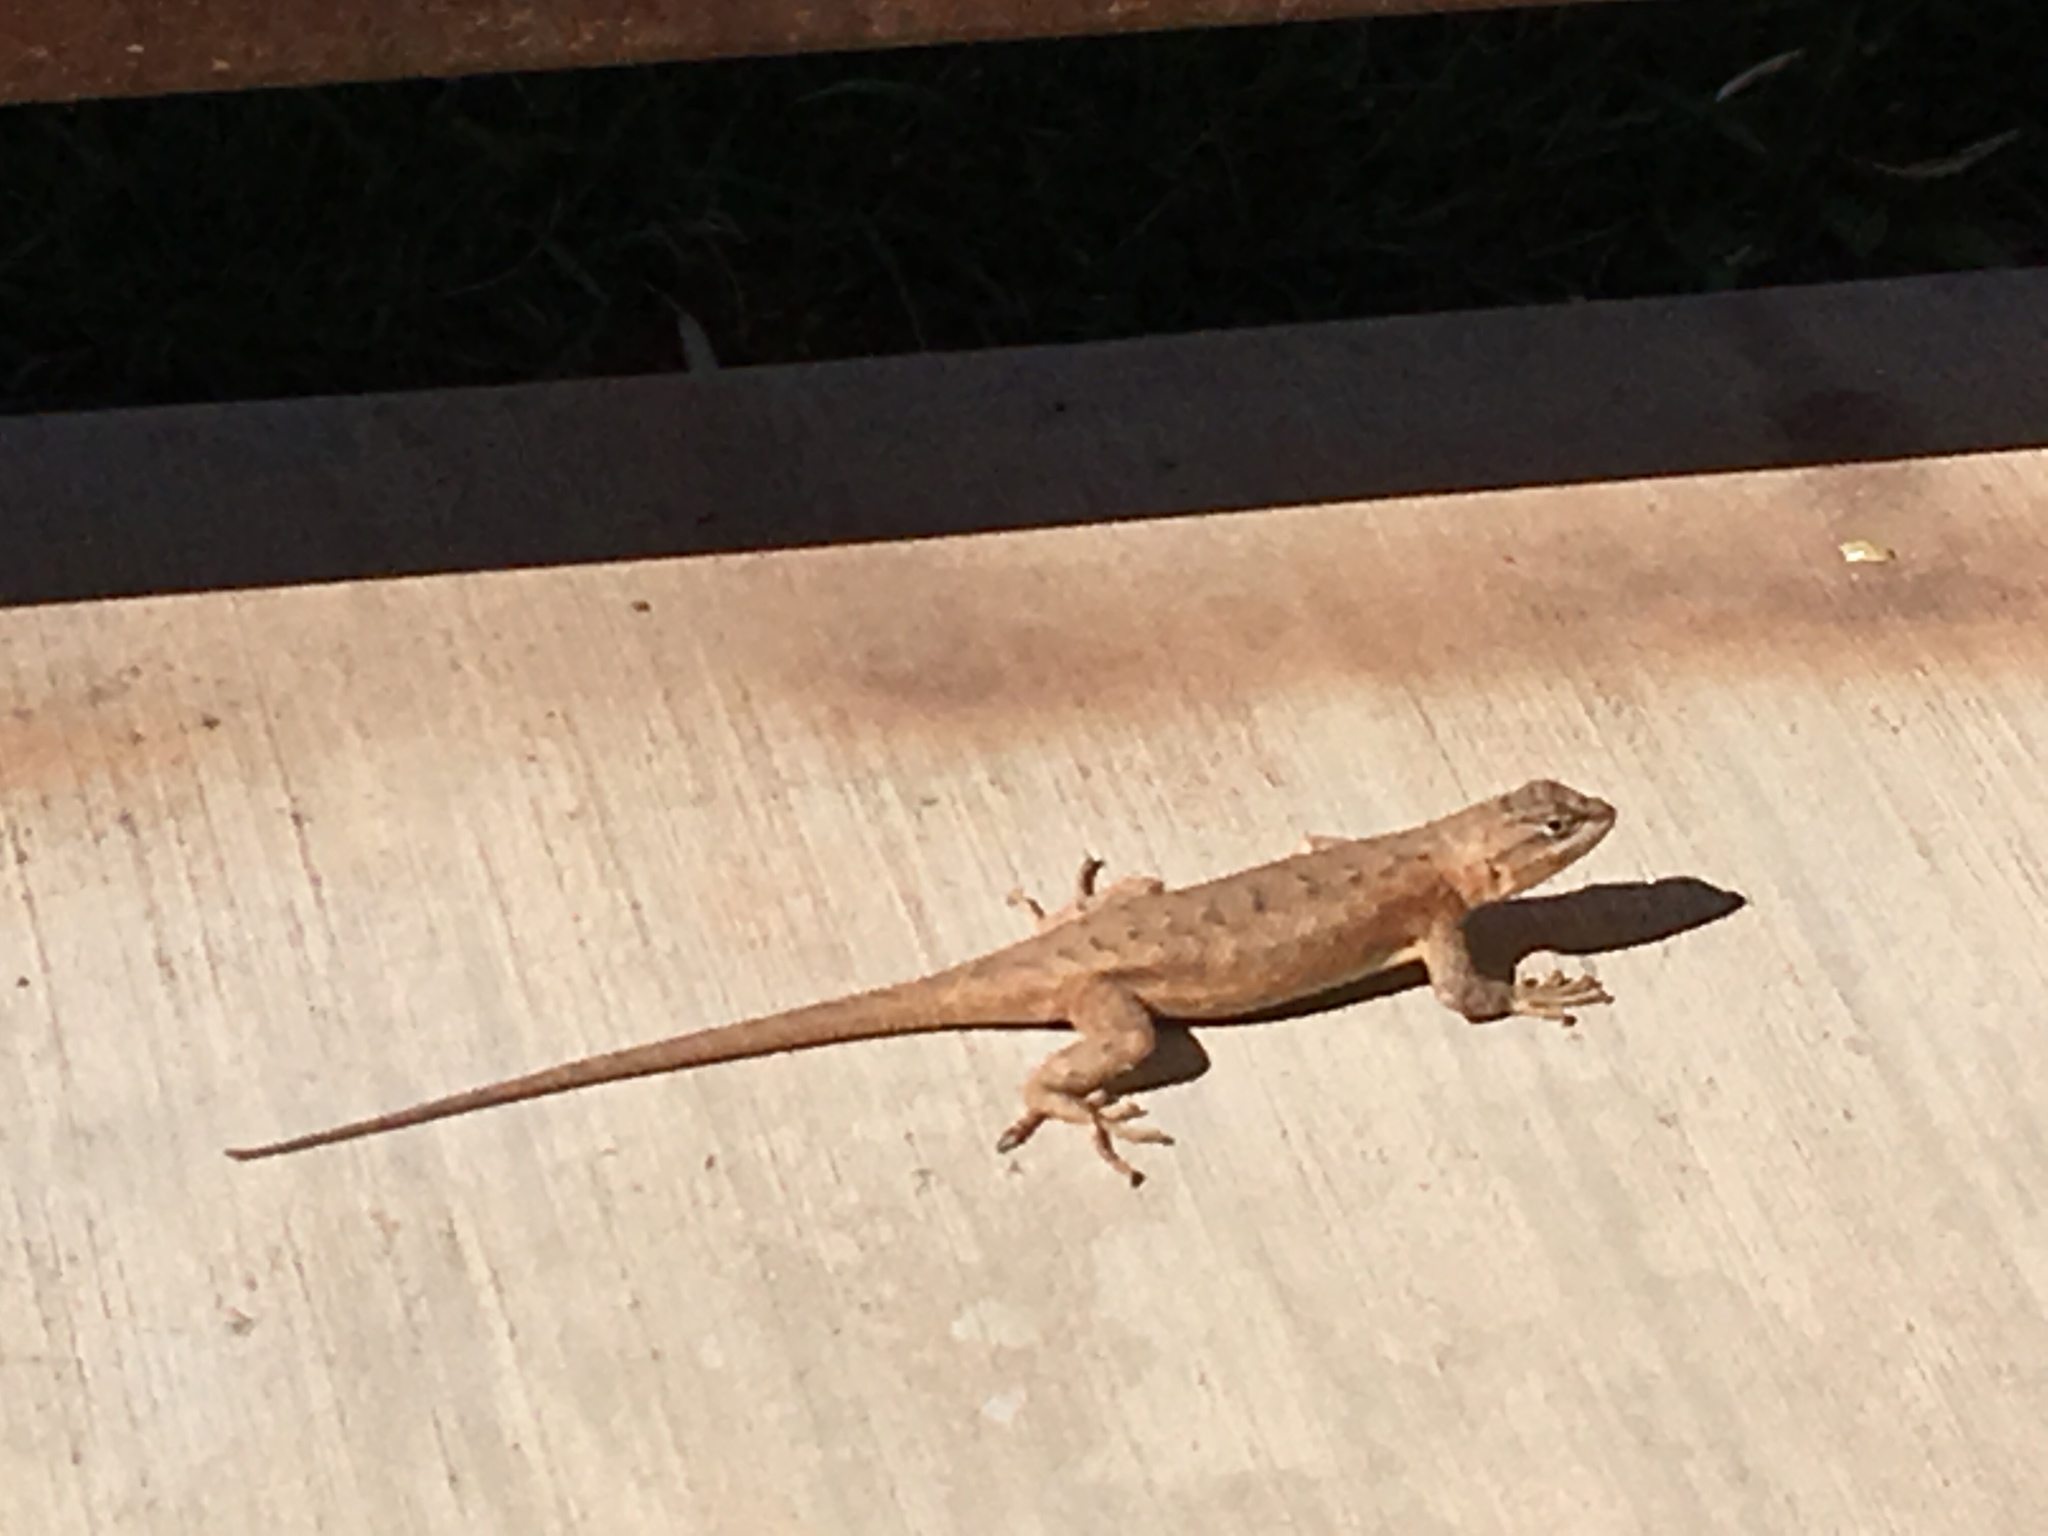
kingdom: Animalia
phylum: Chordata
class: Squamata
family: Phrynosomatidae
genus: Sceloporus
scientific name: Sceloporus tristichus
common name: Plateau fence lizard
